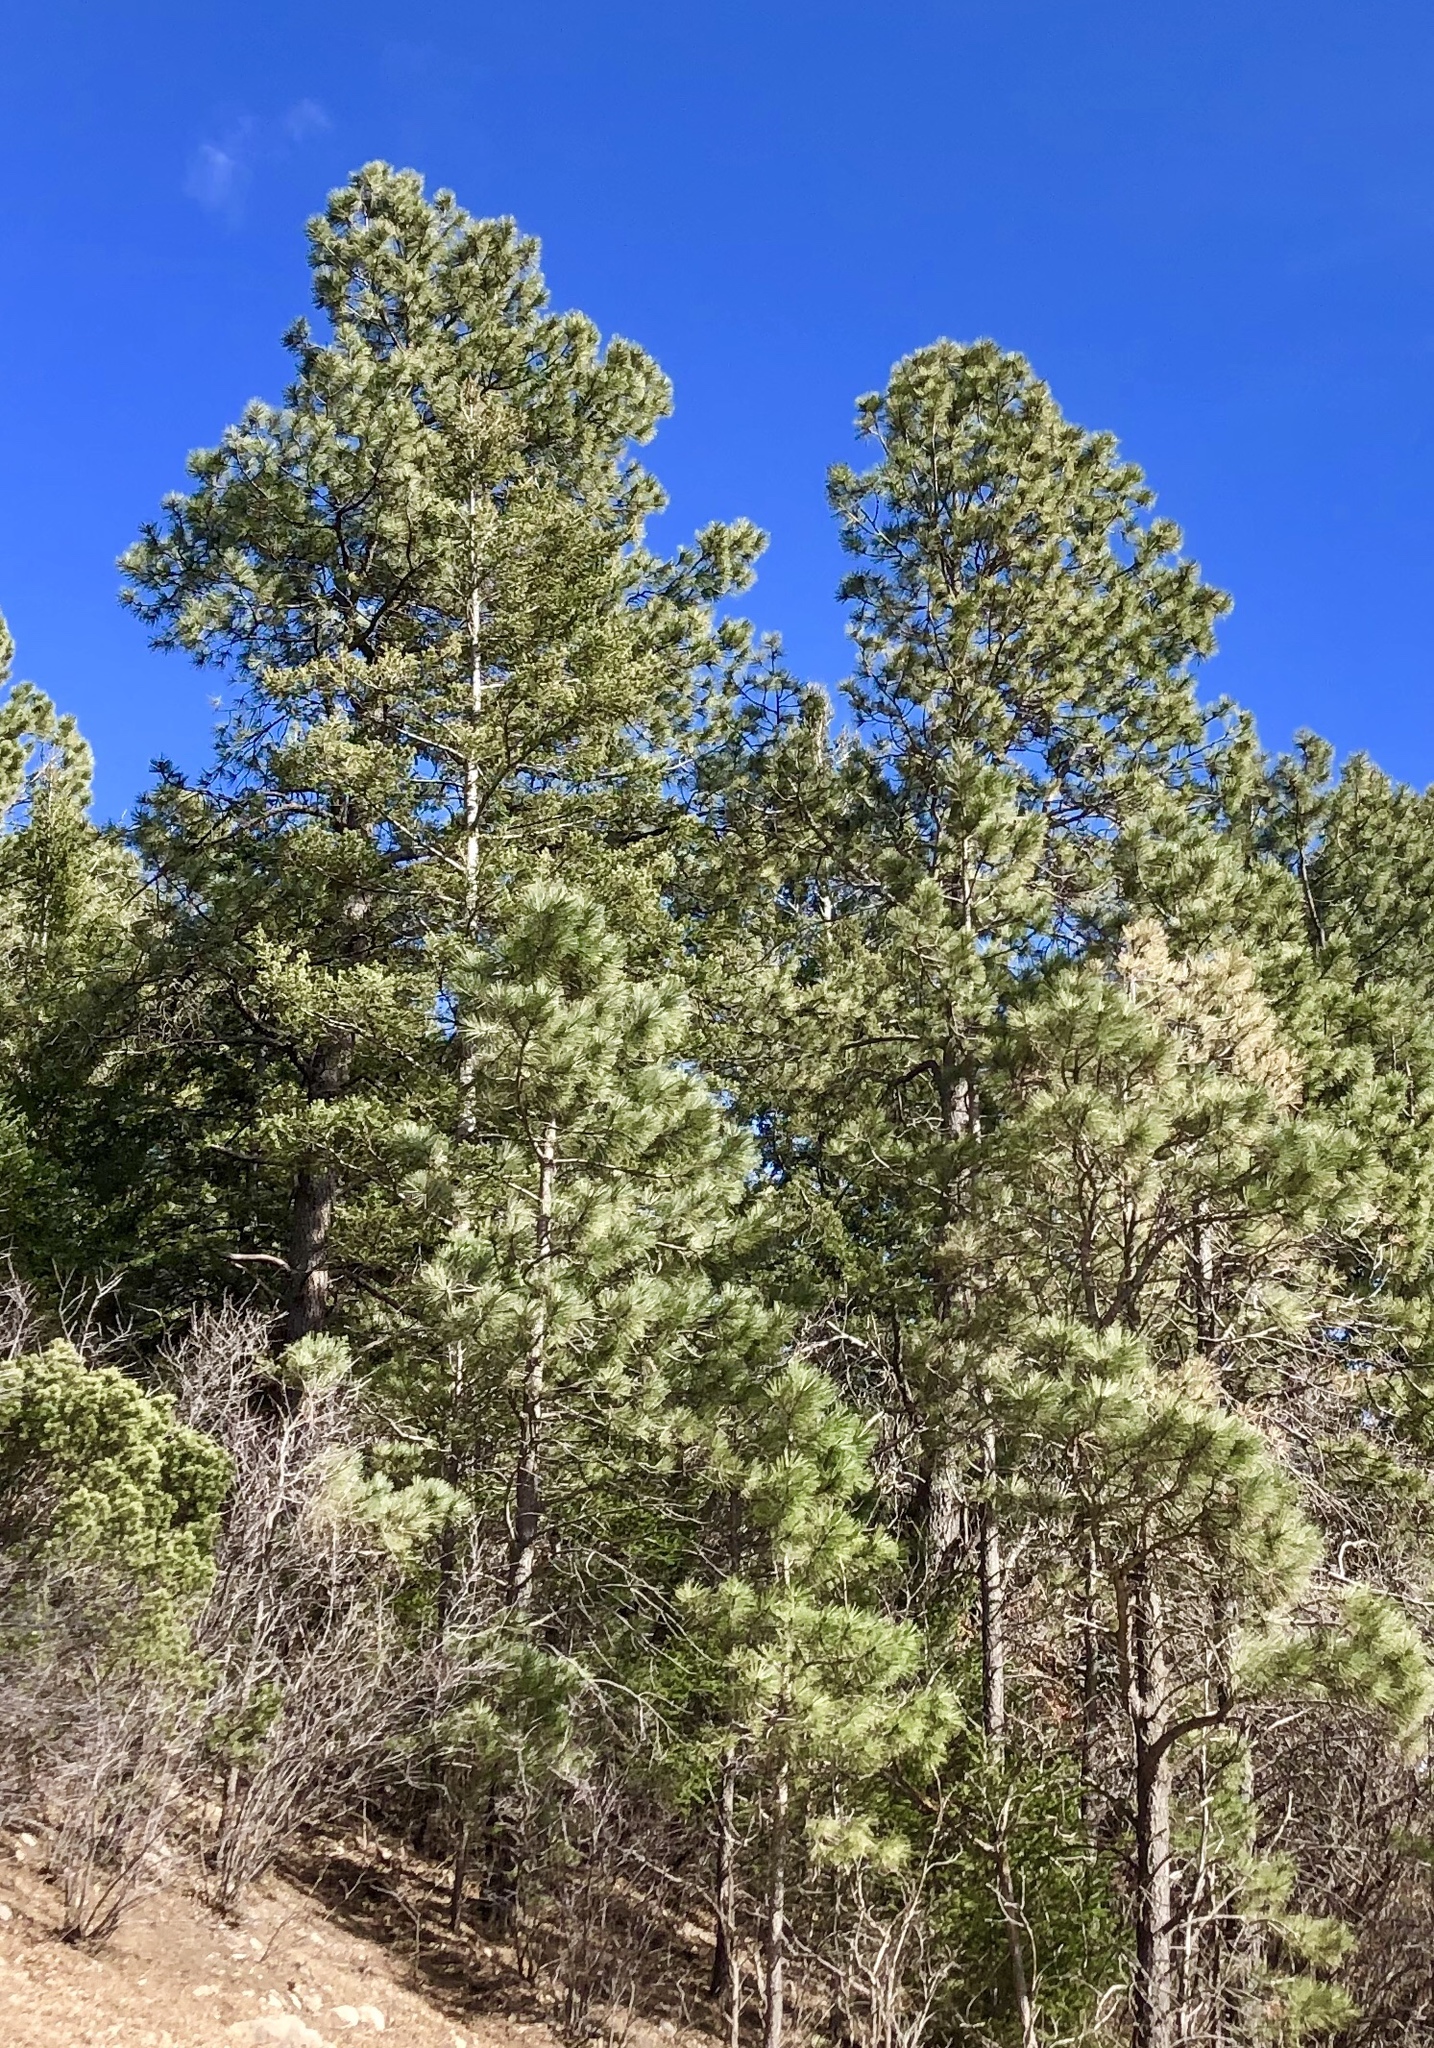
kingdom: Plantae
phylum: Tracheophyta
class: Pinopsida
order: Pinales
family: Pinaceae
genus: Pinus
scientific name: Pinus ponderosa
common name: Western yellow-pine
